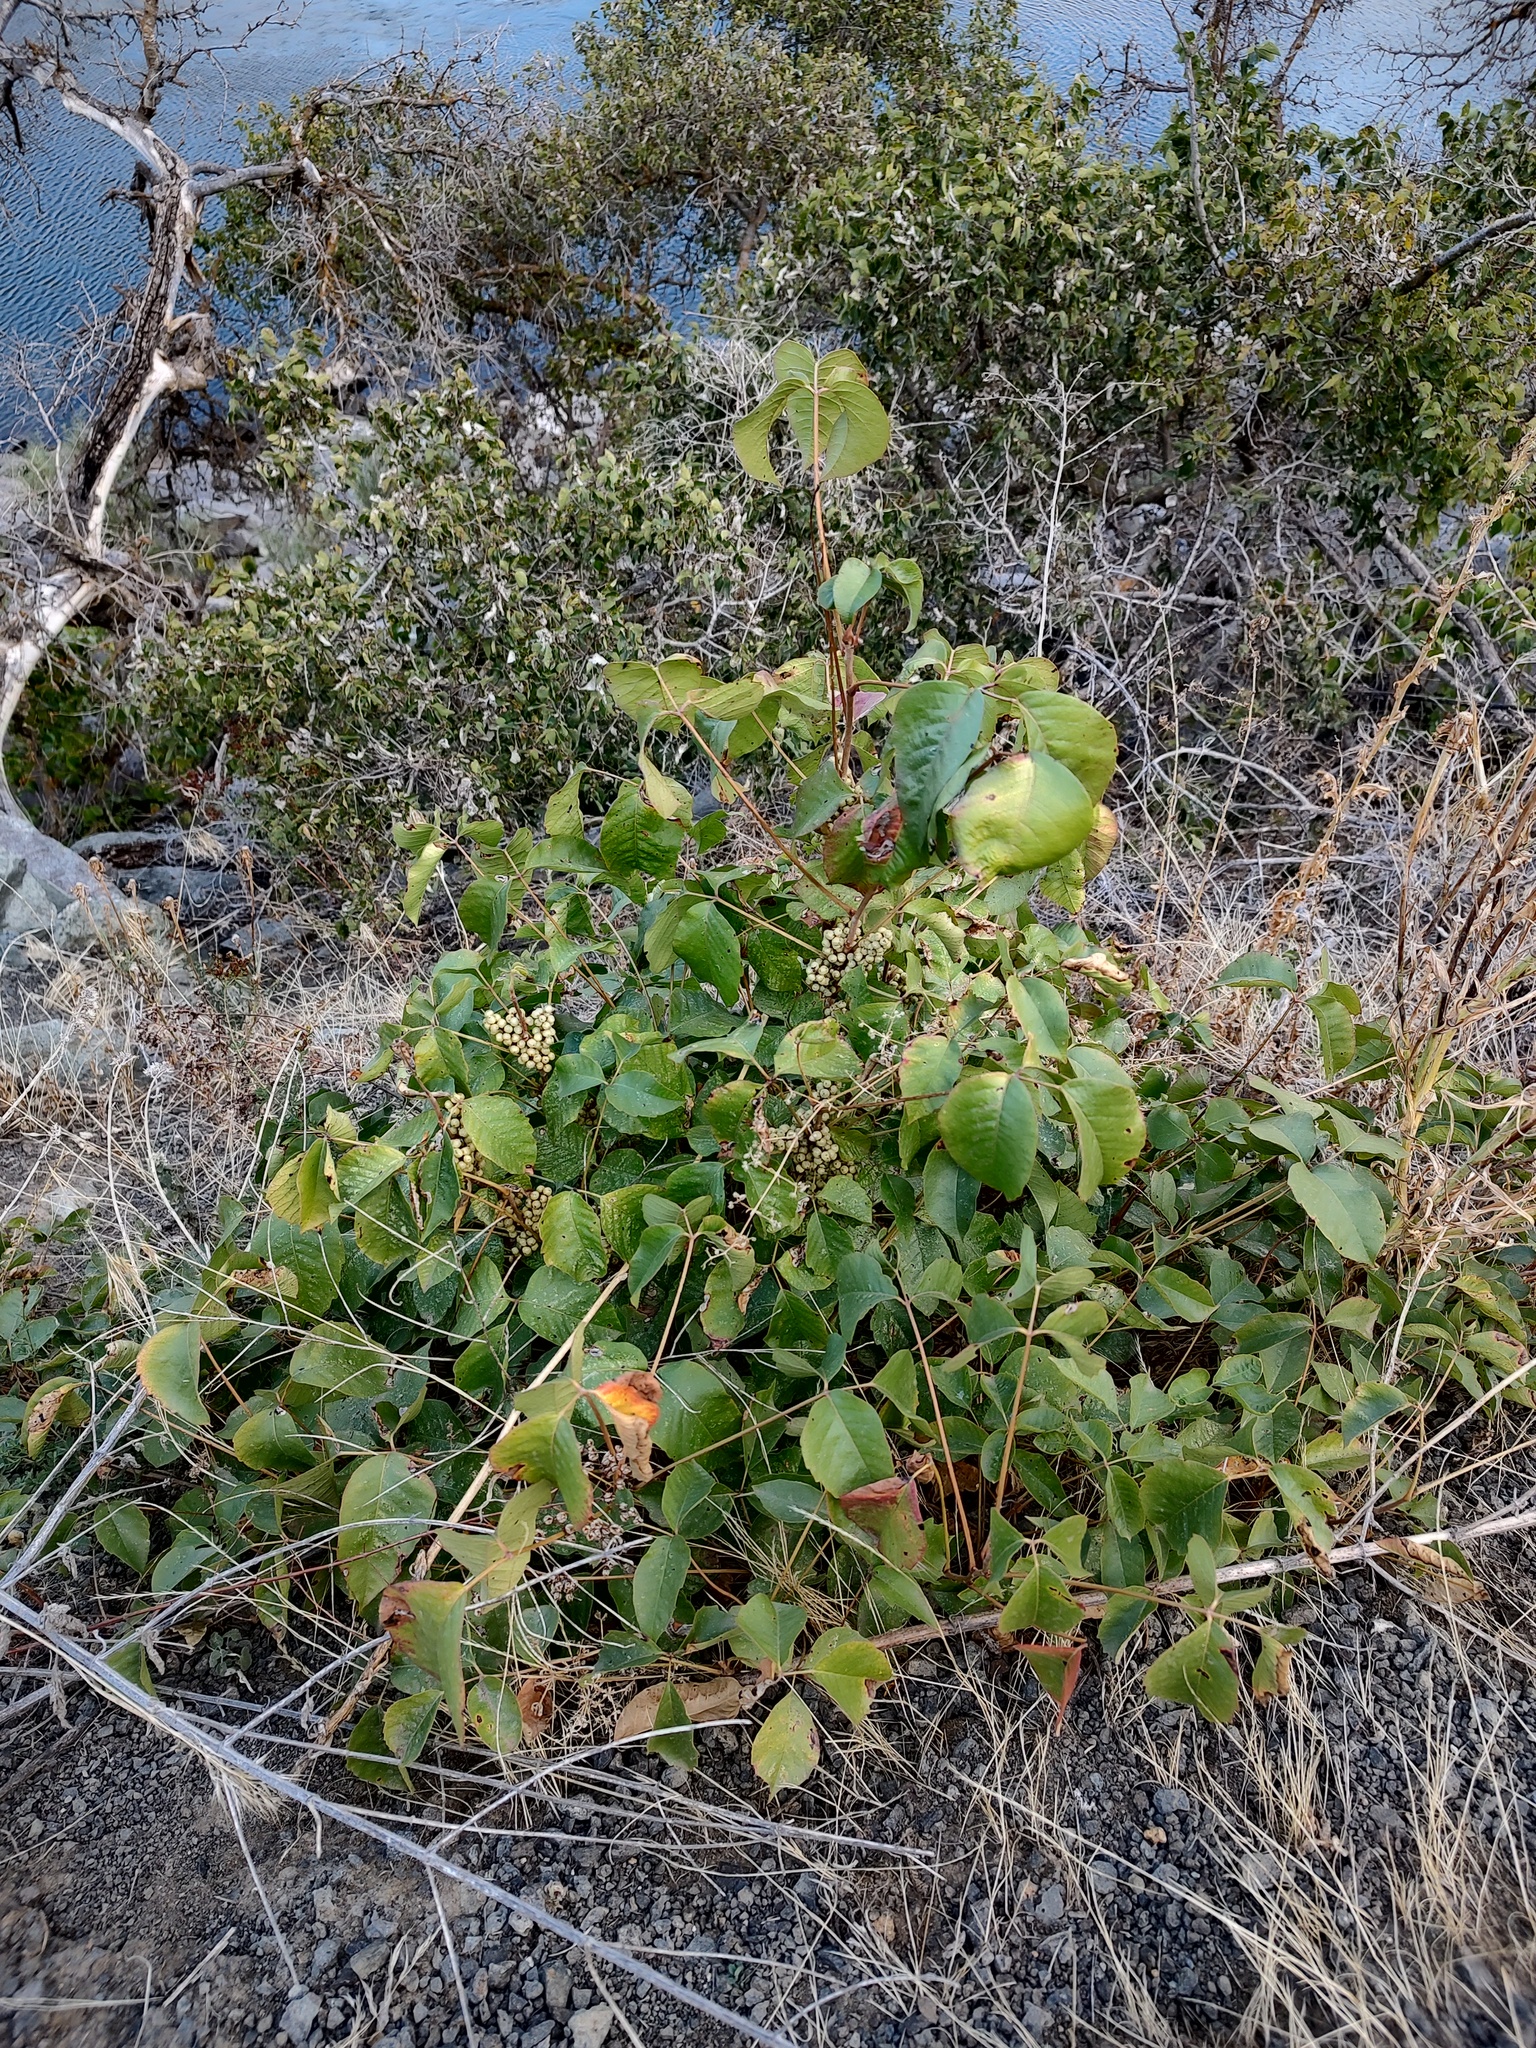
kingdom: Plantae
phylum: Tracheophyta
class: Magnoliopsida
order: Sapindales
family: Anacardiaceae
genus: Toxicodendron
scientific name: Toxicodendron rydbergii
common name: Rydberg's poison-ivy
